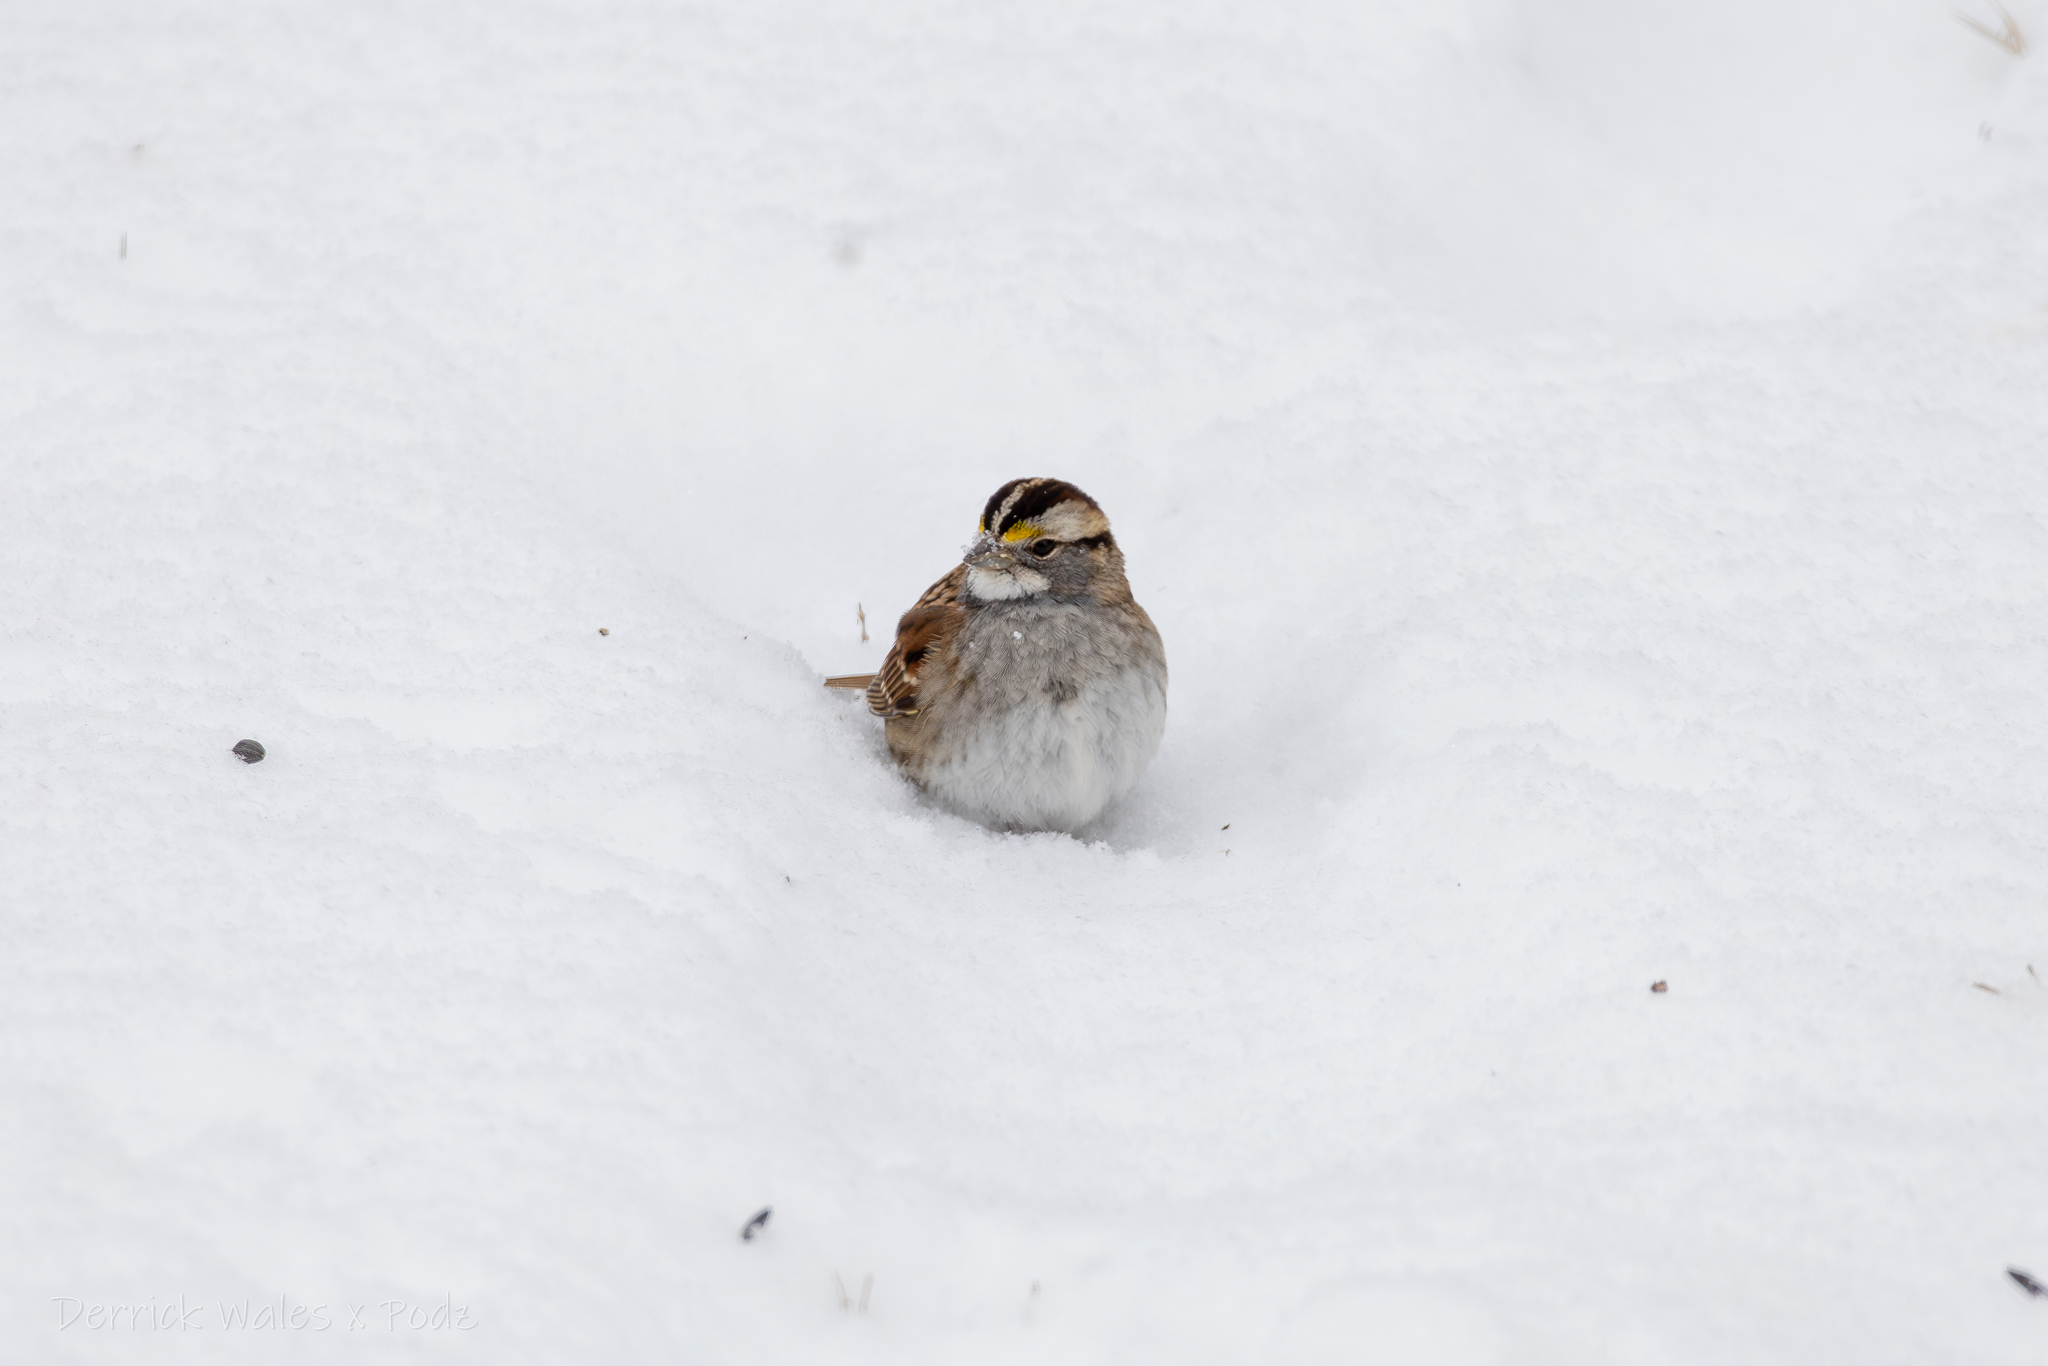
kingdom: Animalia
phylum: Chordata
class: Aves
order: Passeriformes
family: Passerellidae
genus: Zonotrichia
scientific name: Zonotrichia albicollis
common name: White-throated sparrow
